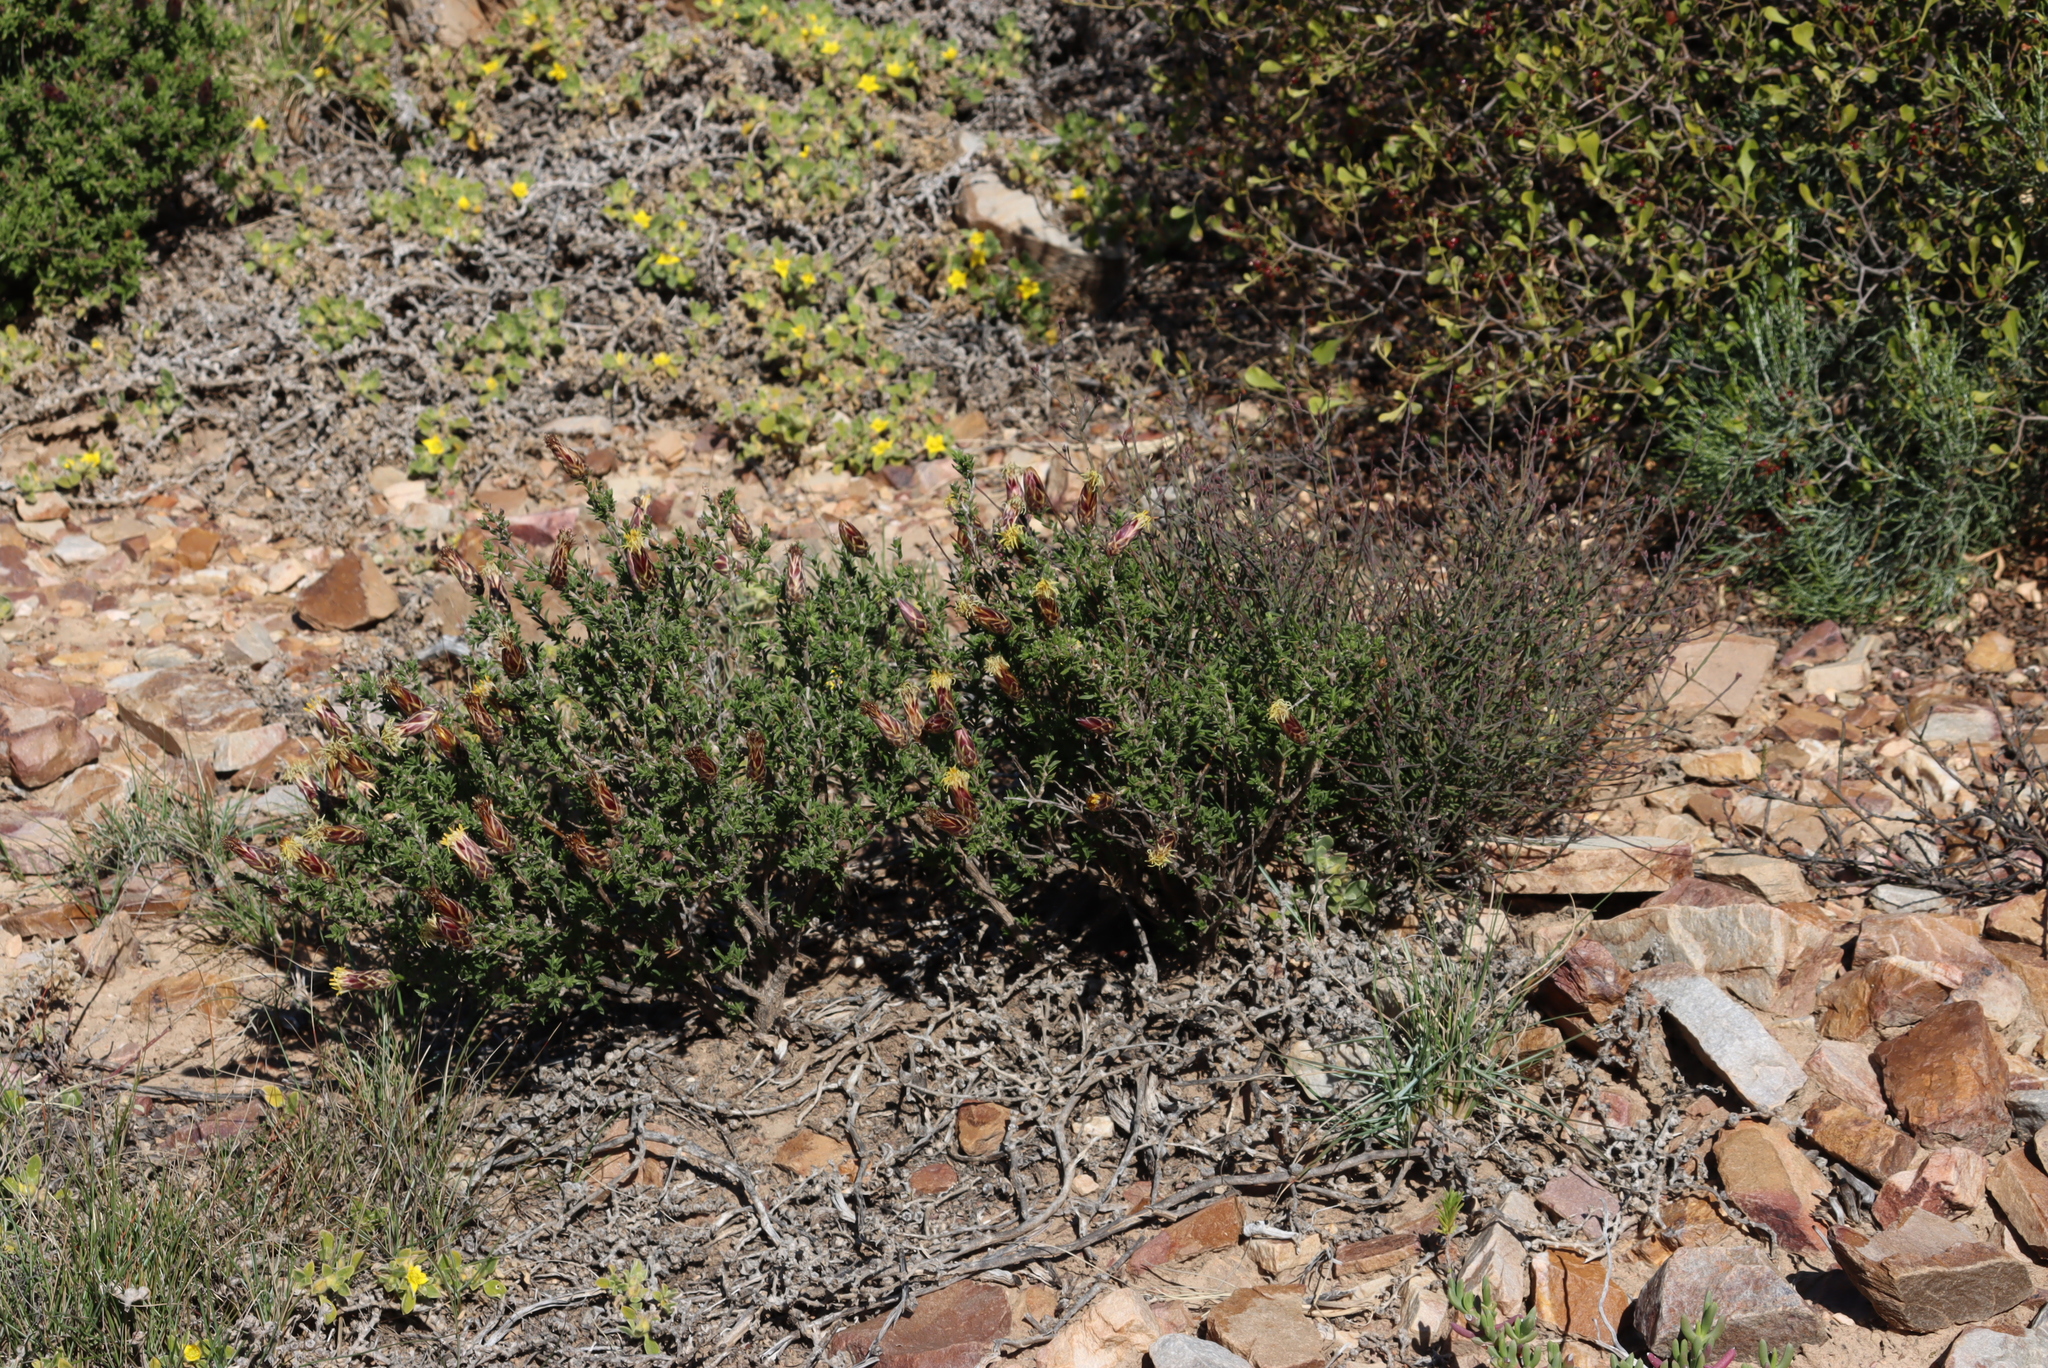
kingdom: Plantae
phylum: Tracheophyta
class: Magnoliopsida
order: Asterales
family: Asteraceae
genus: Pteronia
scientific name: Pteronia staehelinoides
